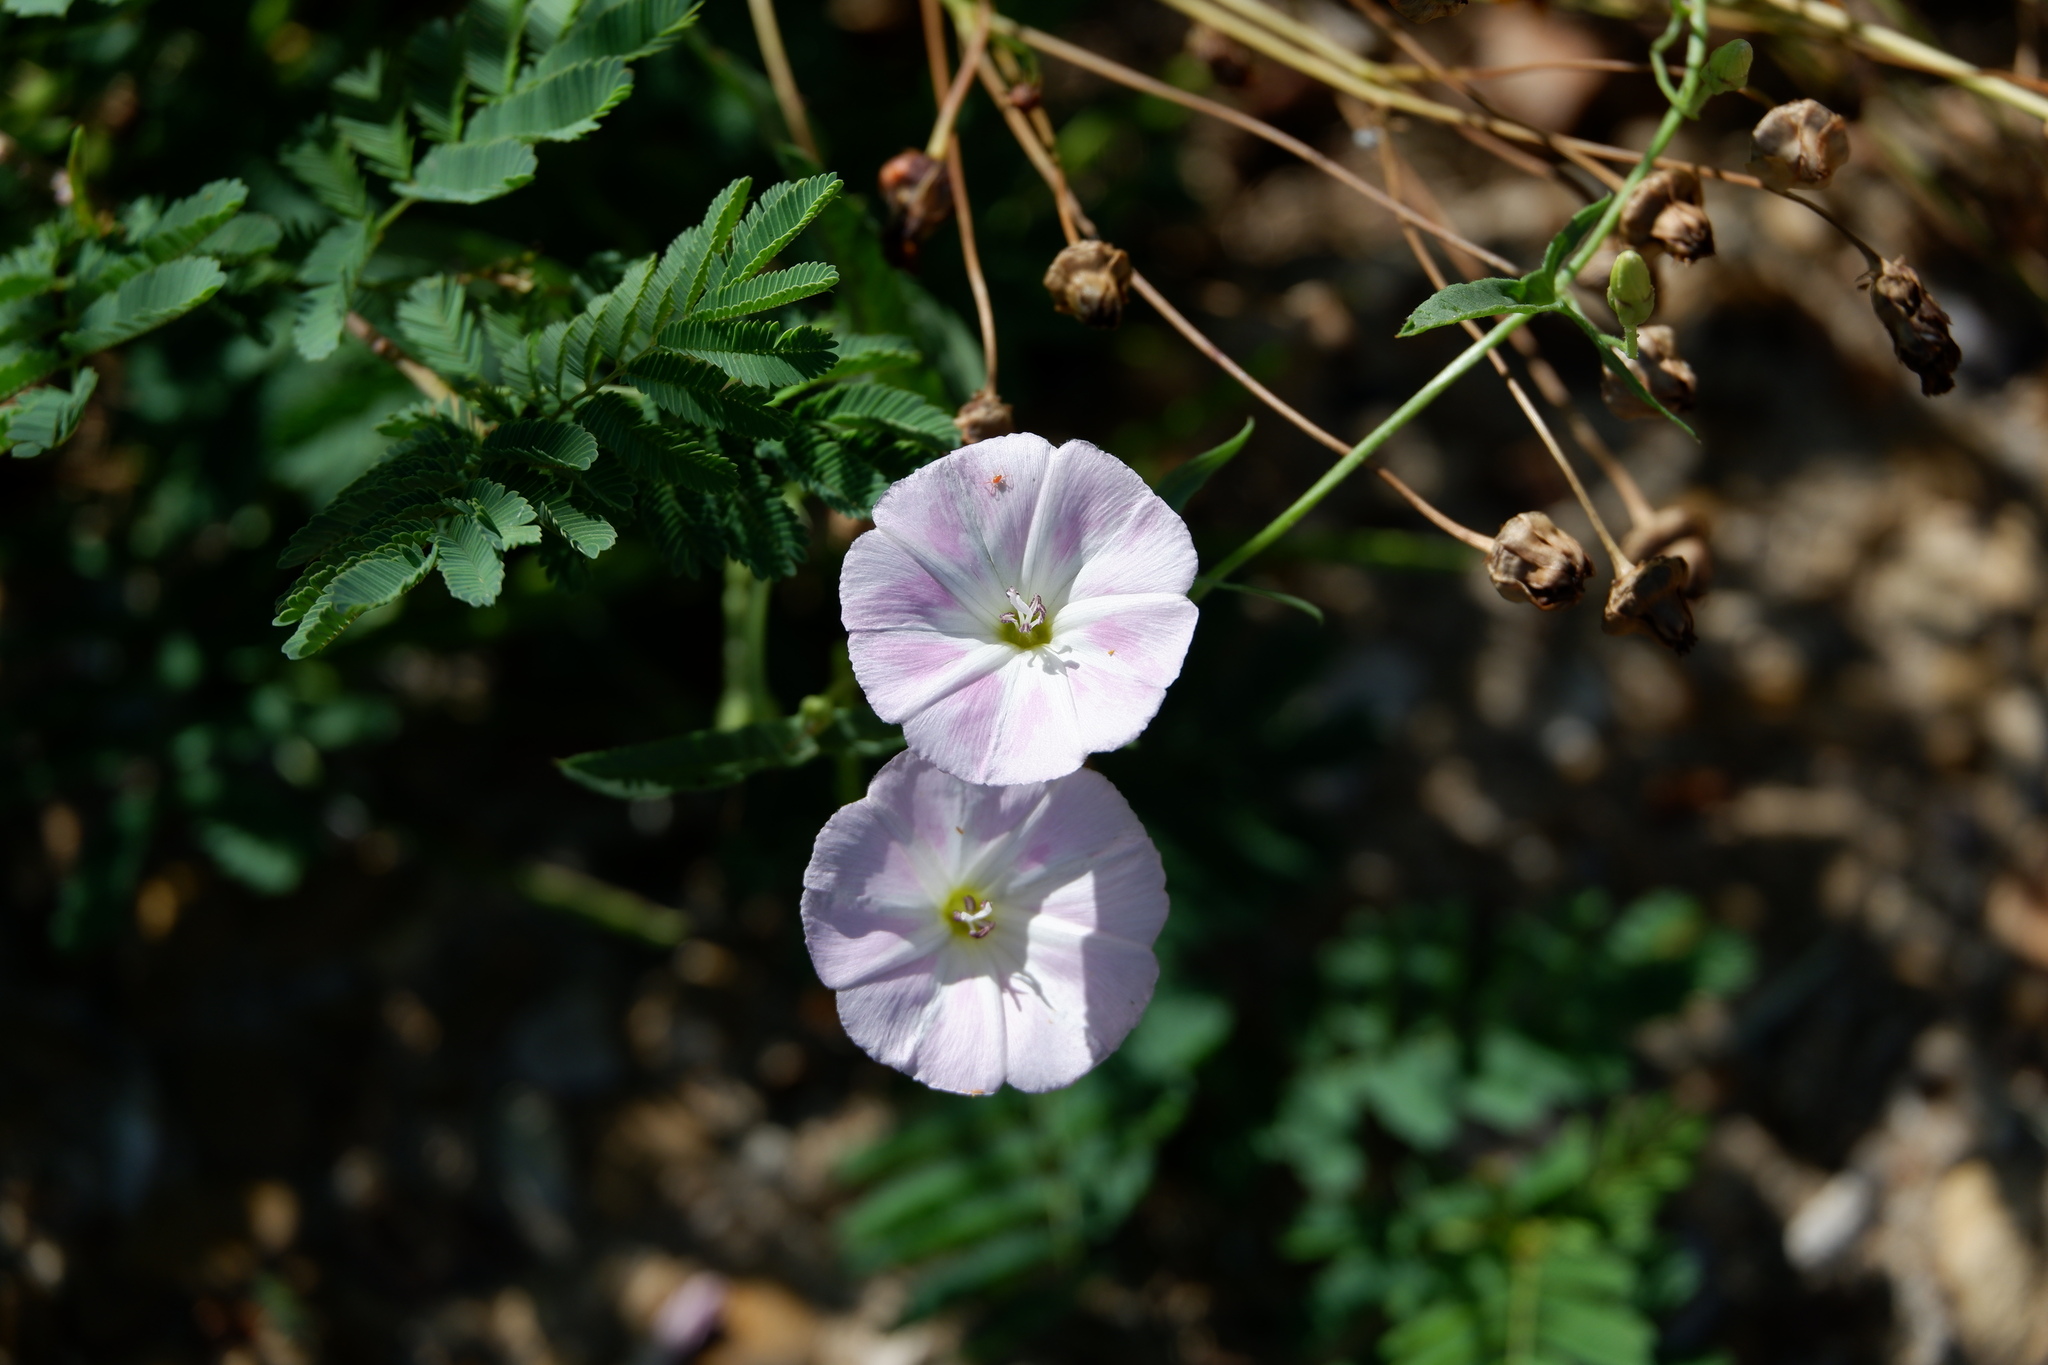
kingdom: Plantae
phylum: Tracheophyta
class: Magnoliopsida
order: Solanales
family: Convolvulaceae
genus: Convolvulus
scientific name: Convolvulus arvensis
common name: Field bindweed
